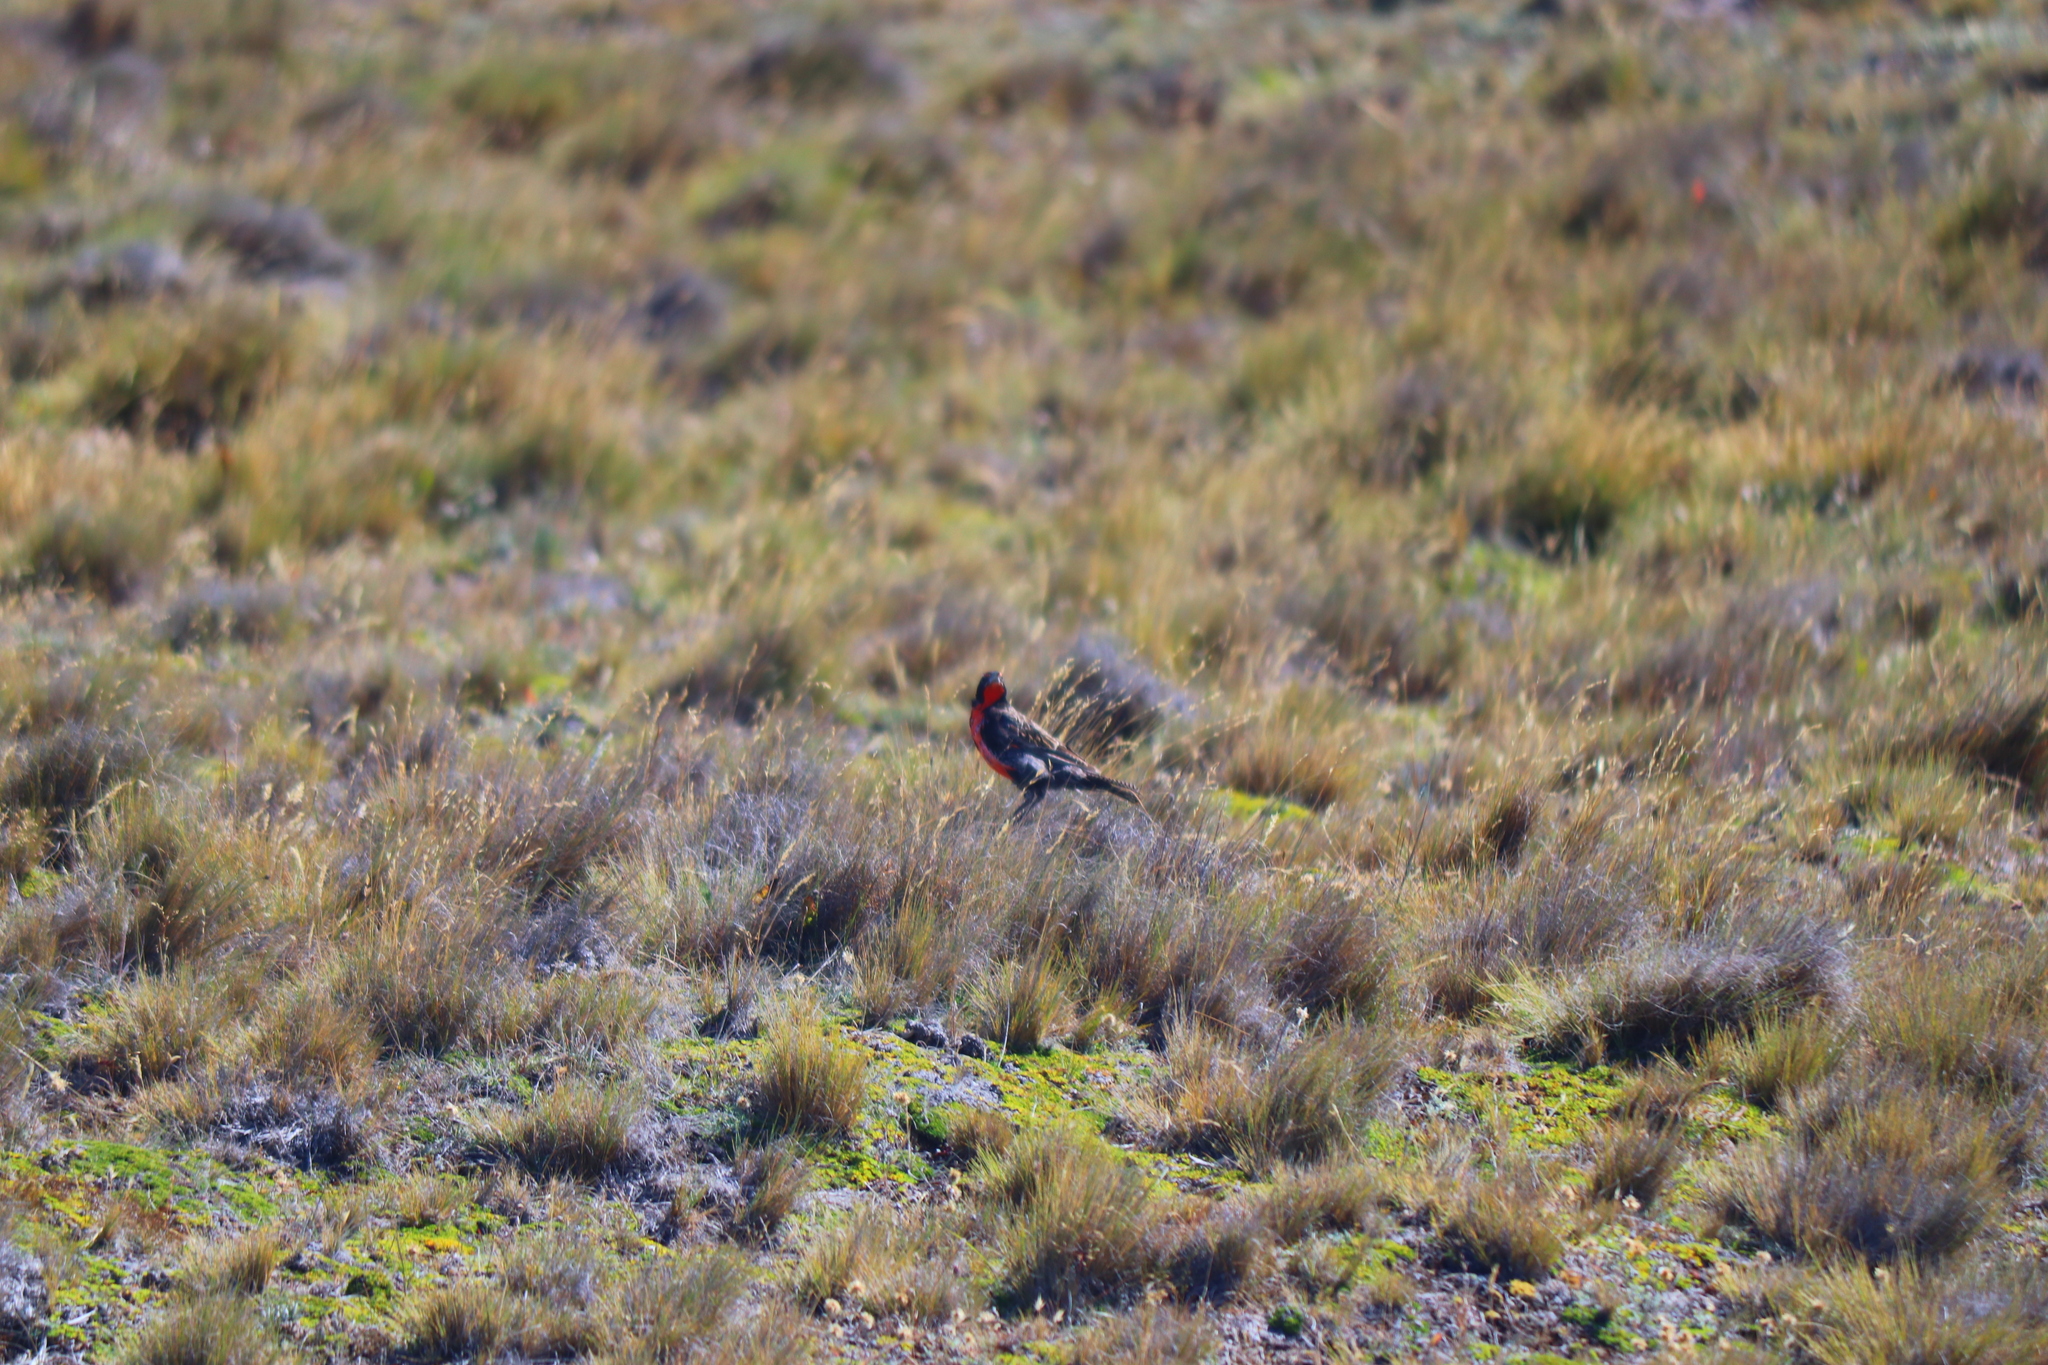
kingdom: Animalia
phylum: Chordata
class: Aves
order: Passeriformes
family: Icteridae
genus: Sturnella
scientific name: Sturnella loyca
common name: Long-tailed meadowlark
